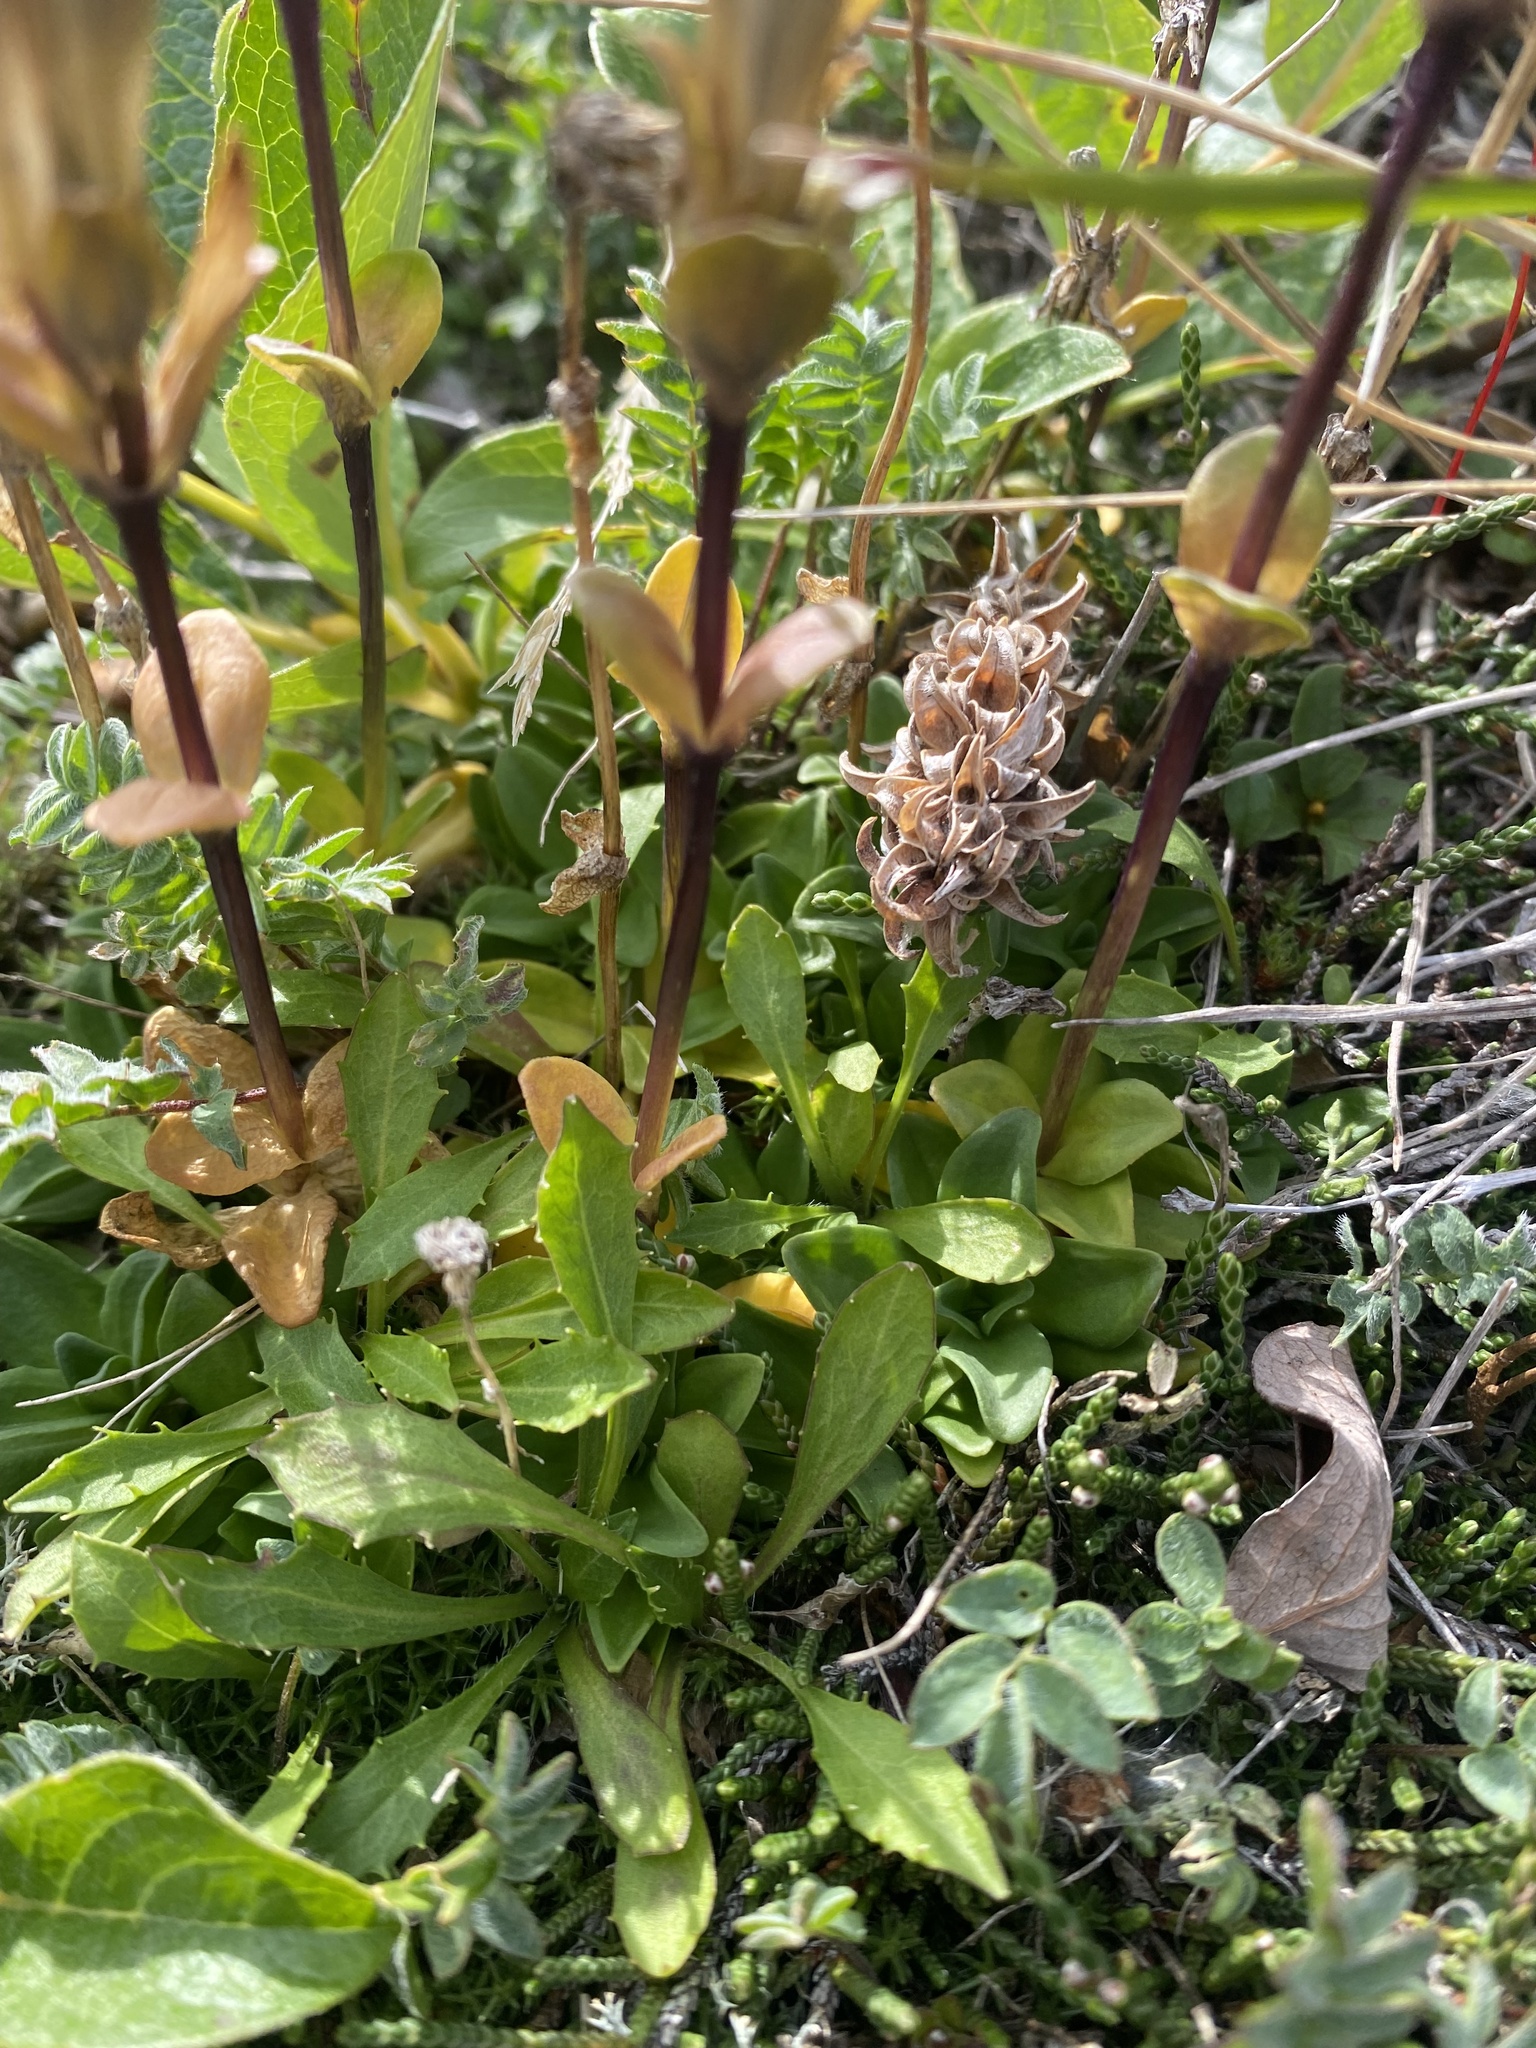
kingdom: Plantae
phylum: Tracheophyta
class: Magnoliopsida
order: Gentianales
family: Gentianaceae
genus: Gentiana
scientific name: Gentiana glauca
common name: Alpine gentian
